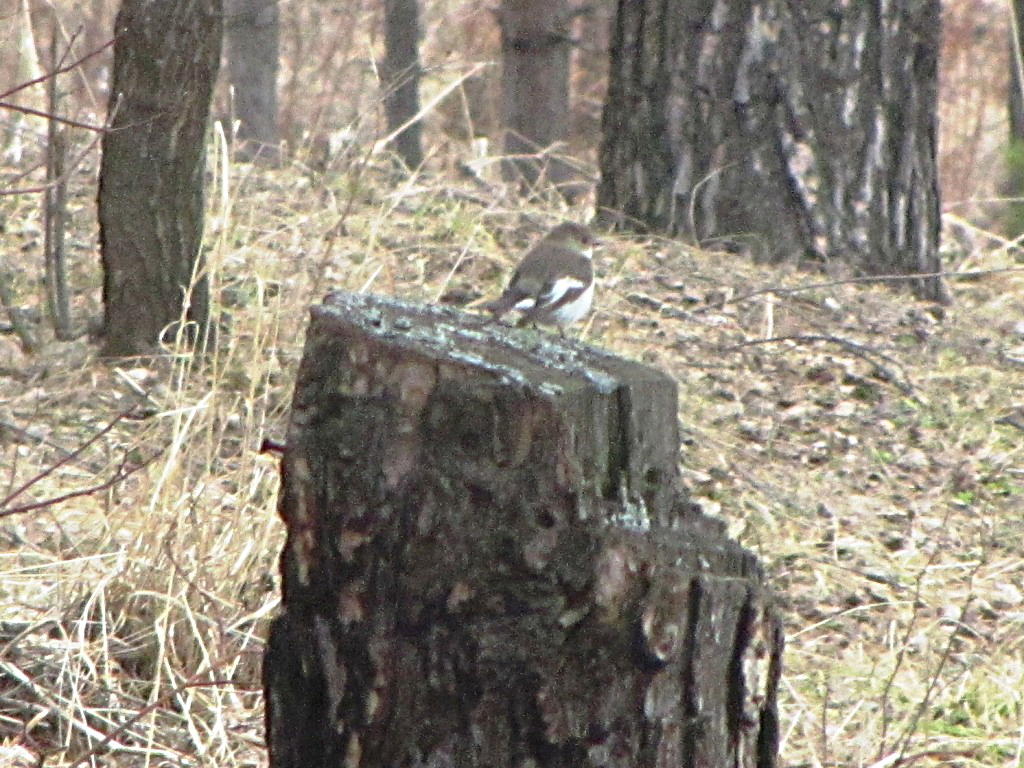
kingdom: Animalia
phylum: Chordata
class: Aves
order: Passeriformes
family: Muscicapidae
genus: Ficedula
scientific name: Ficedula hypoleuca
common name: European pied flycatcher
